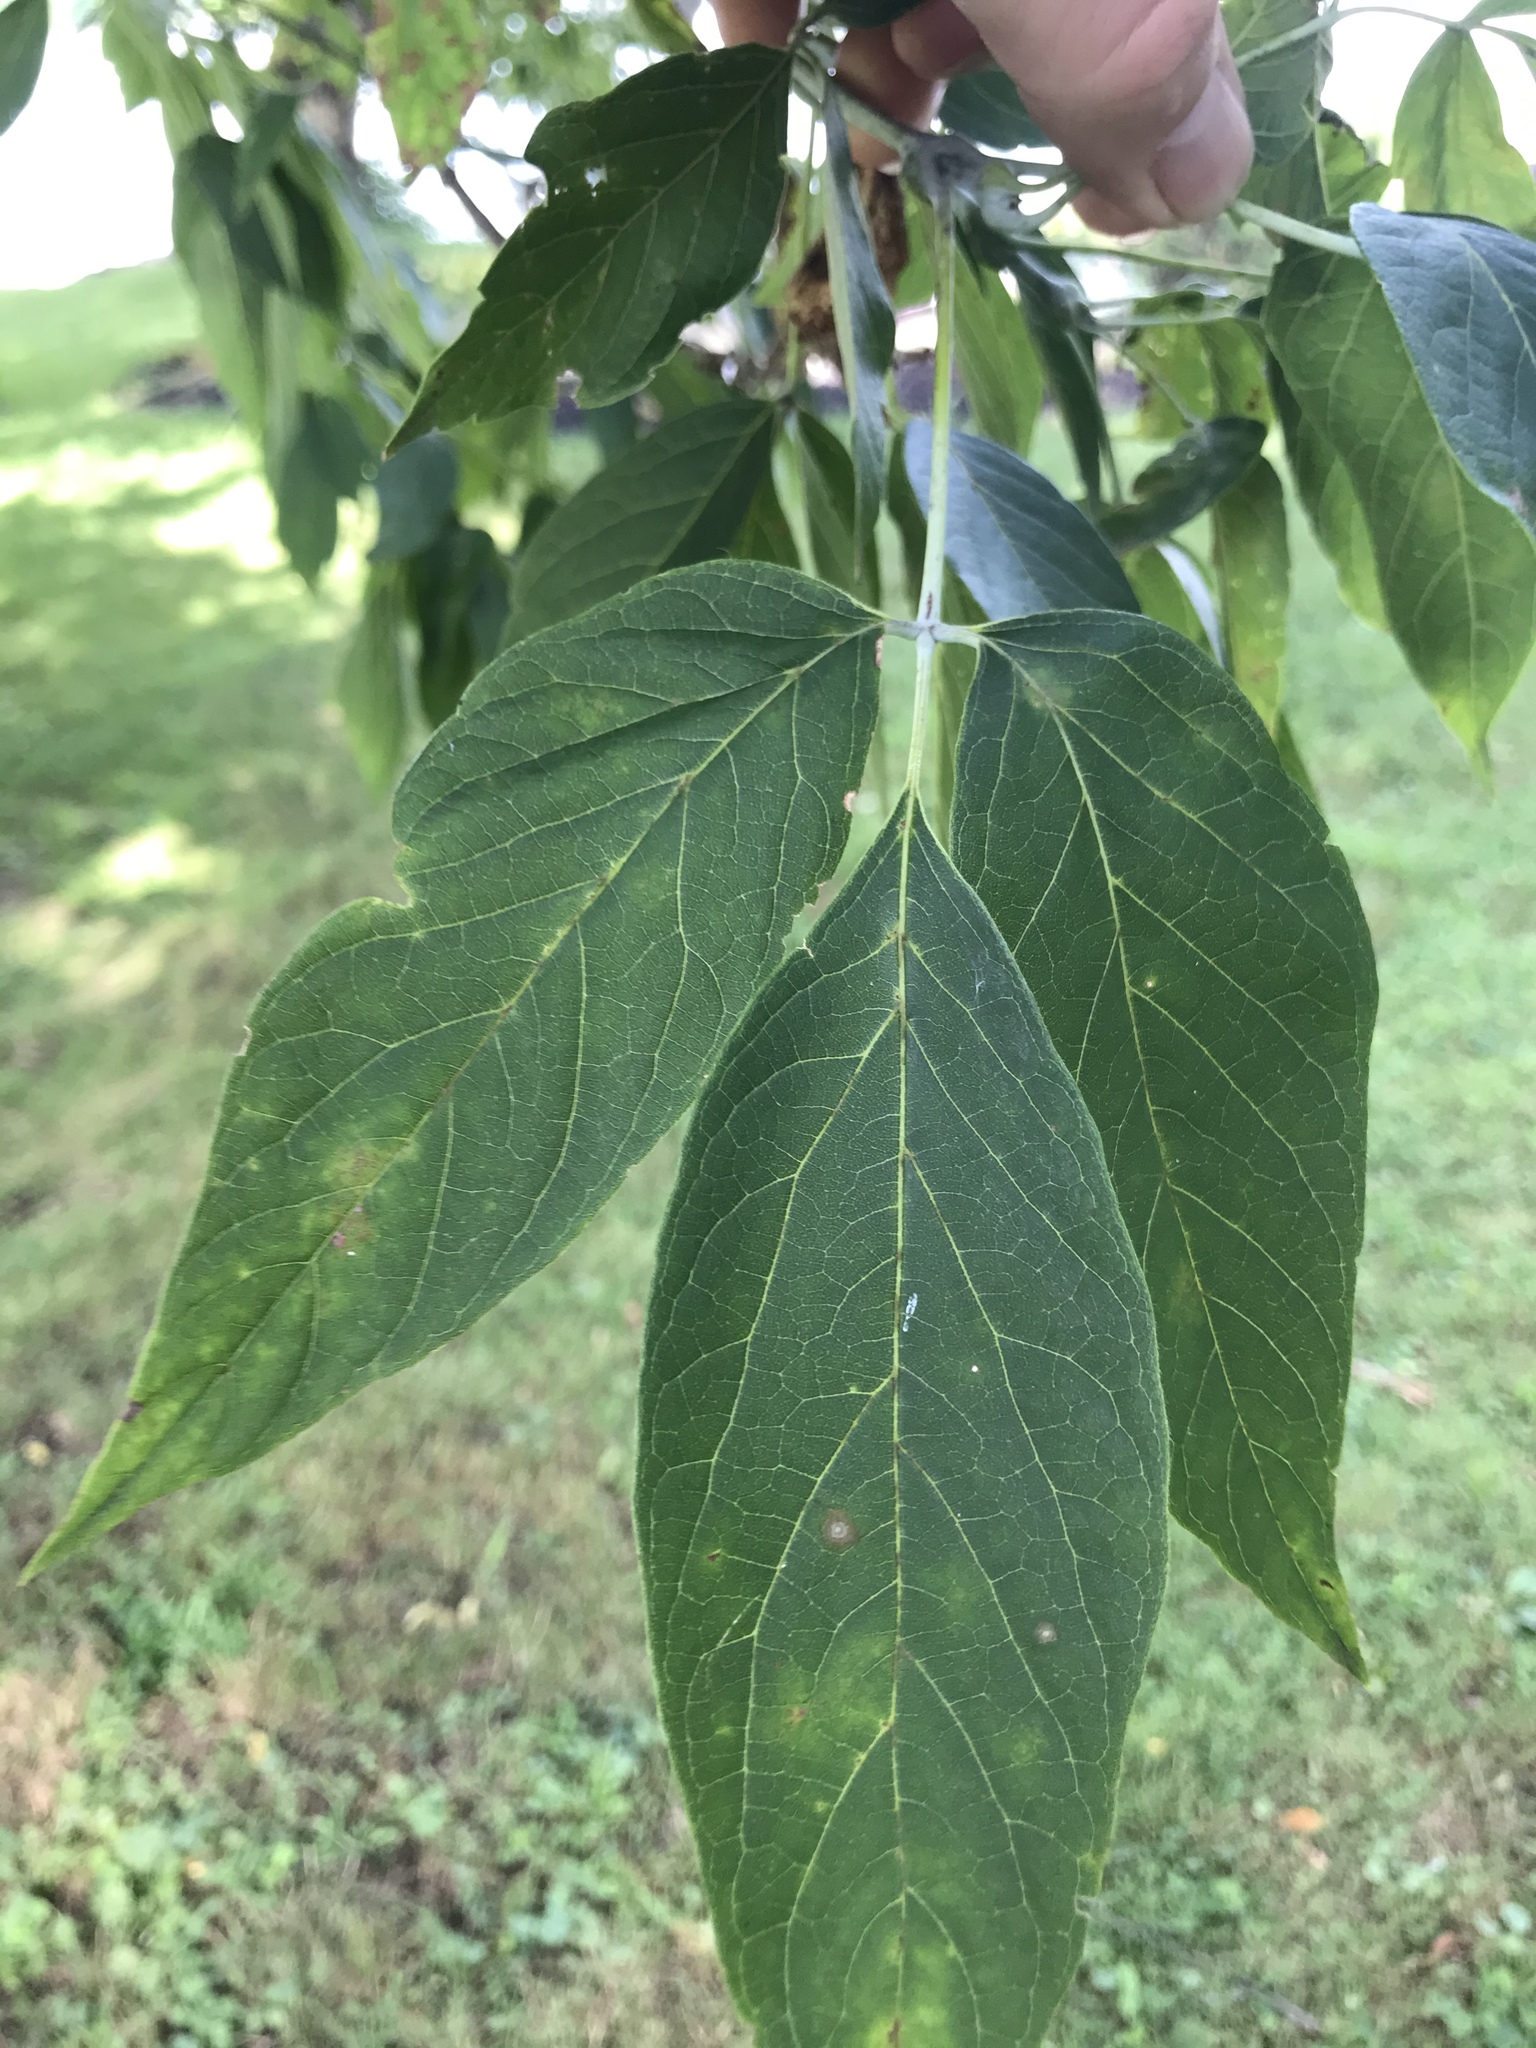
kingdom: Plantae
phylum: Tracheophyta
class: Magnoliopsida
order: Sapindales
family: Sapindaceae
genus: Acer
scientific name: Acer negundo
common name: Ashleaf maple
